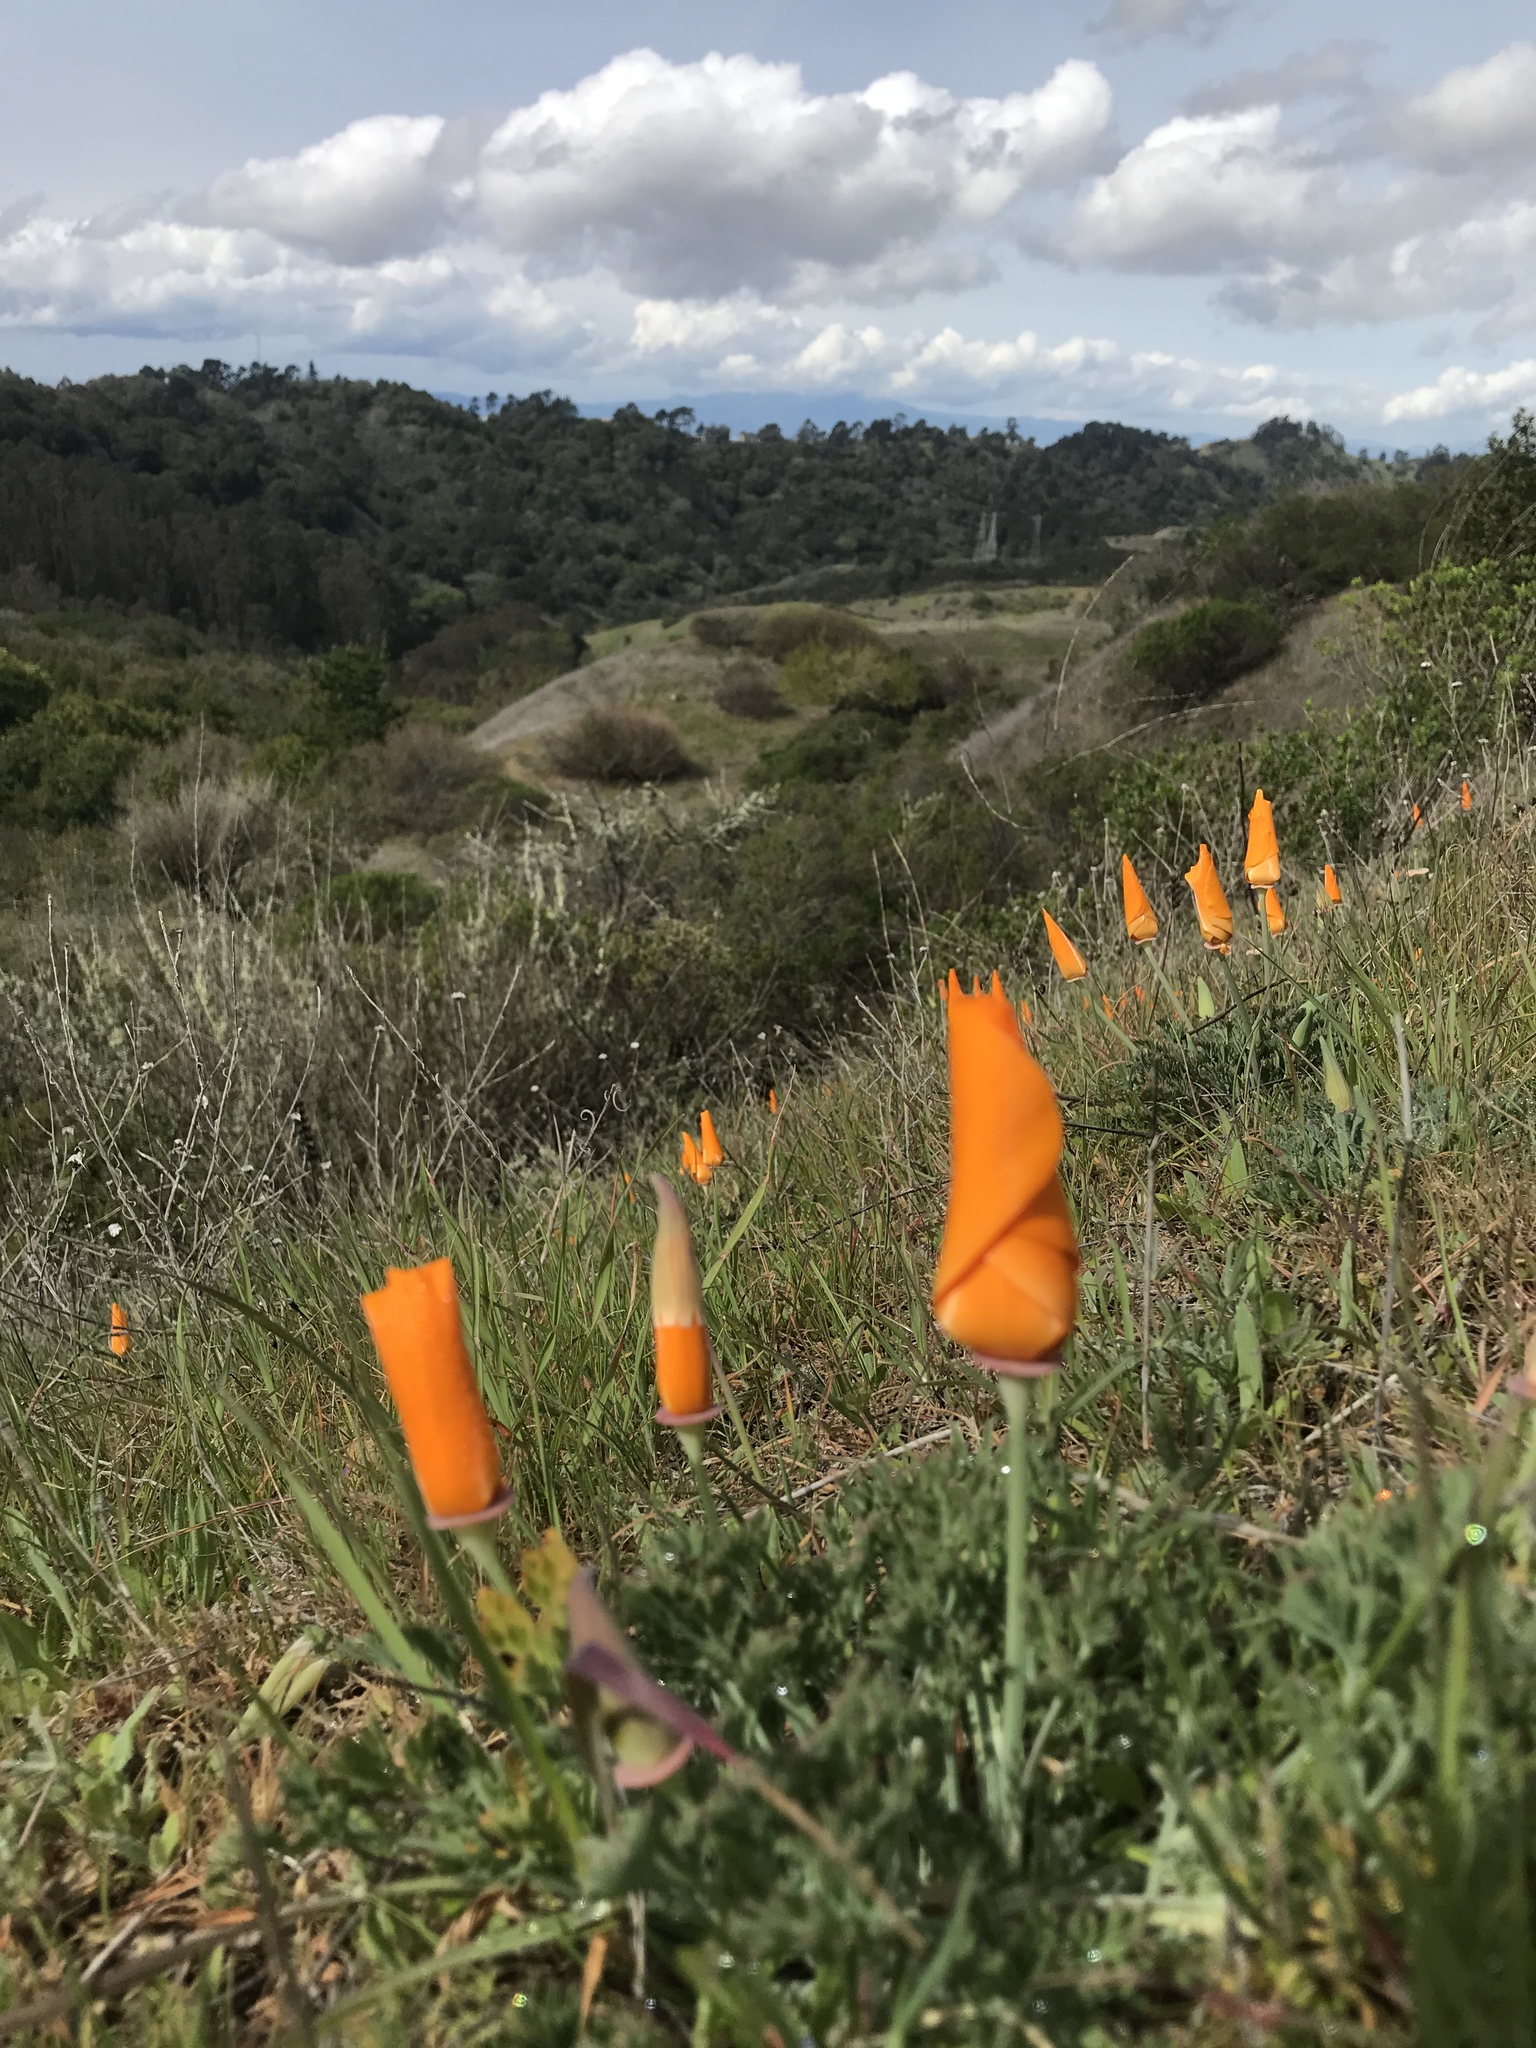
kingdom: Plantae
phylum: Tracheophyta
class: Magnoliopsida
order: Ranunculales
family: Papaveraceae
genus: Eschscholzia
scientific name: Eschscholzia californica
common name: California poppy
